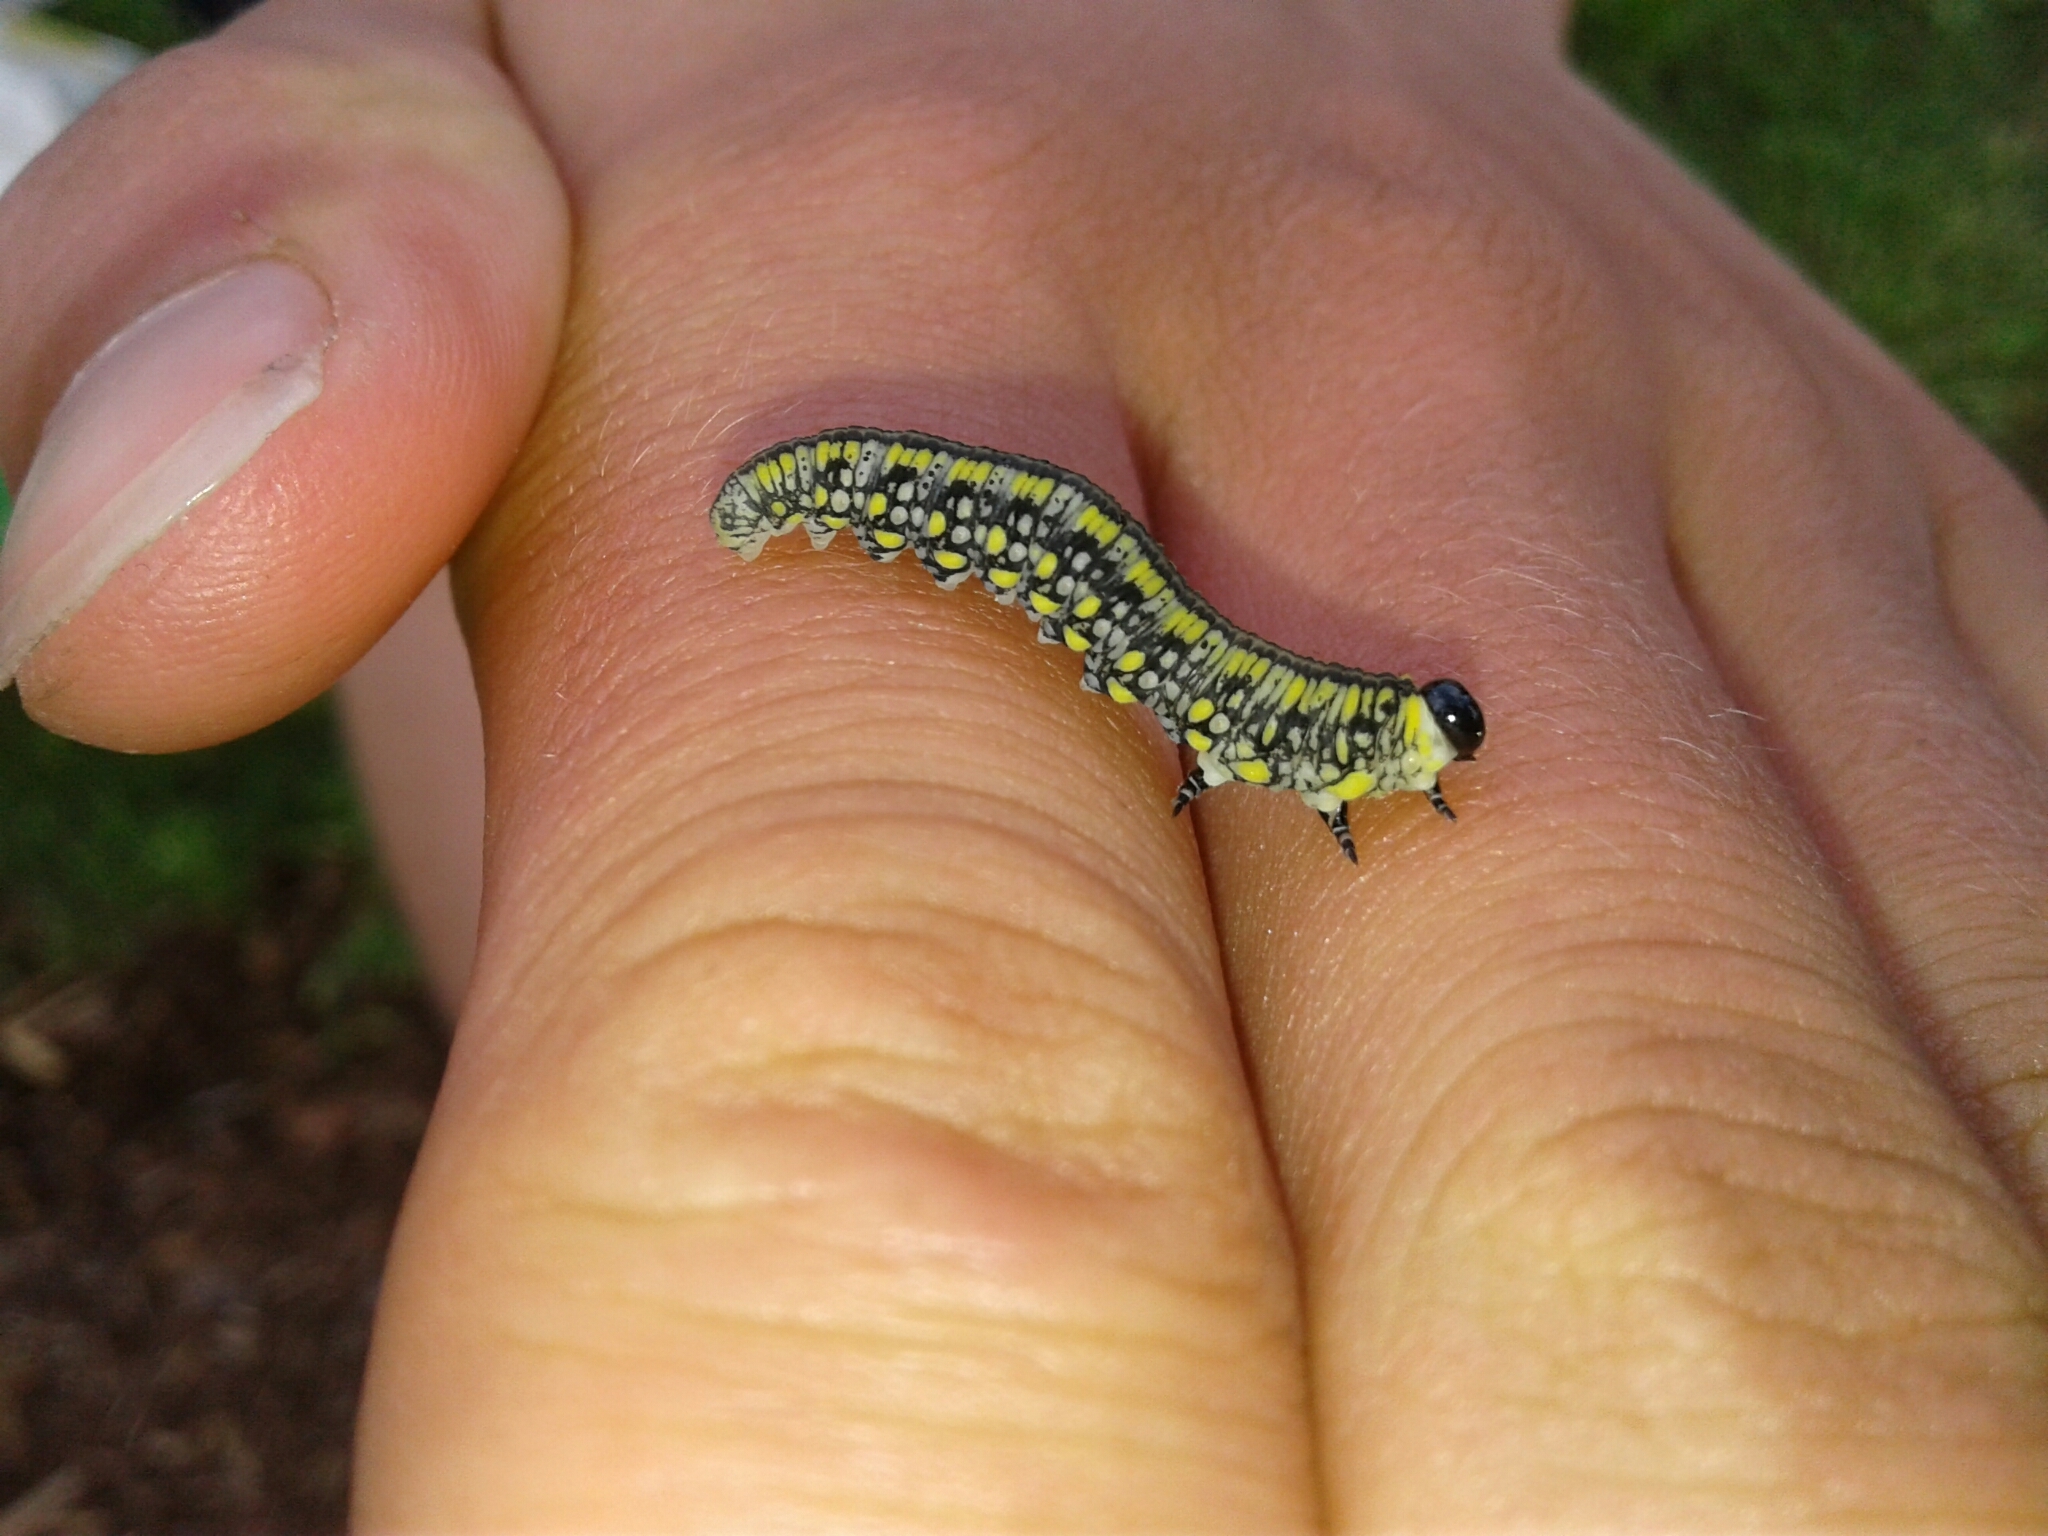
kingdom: Animalia
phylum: Arthropoda
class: Insecta
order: Hymenoptera
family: Diprionidae
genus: Diprion
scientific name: Diprion similis
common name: Pine sawfly
